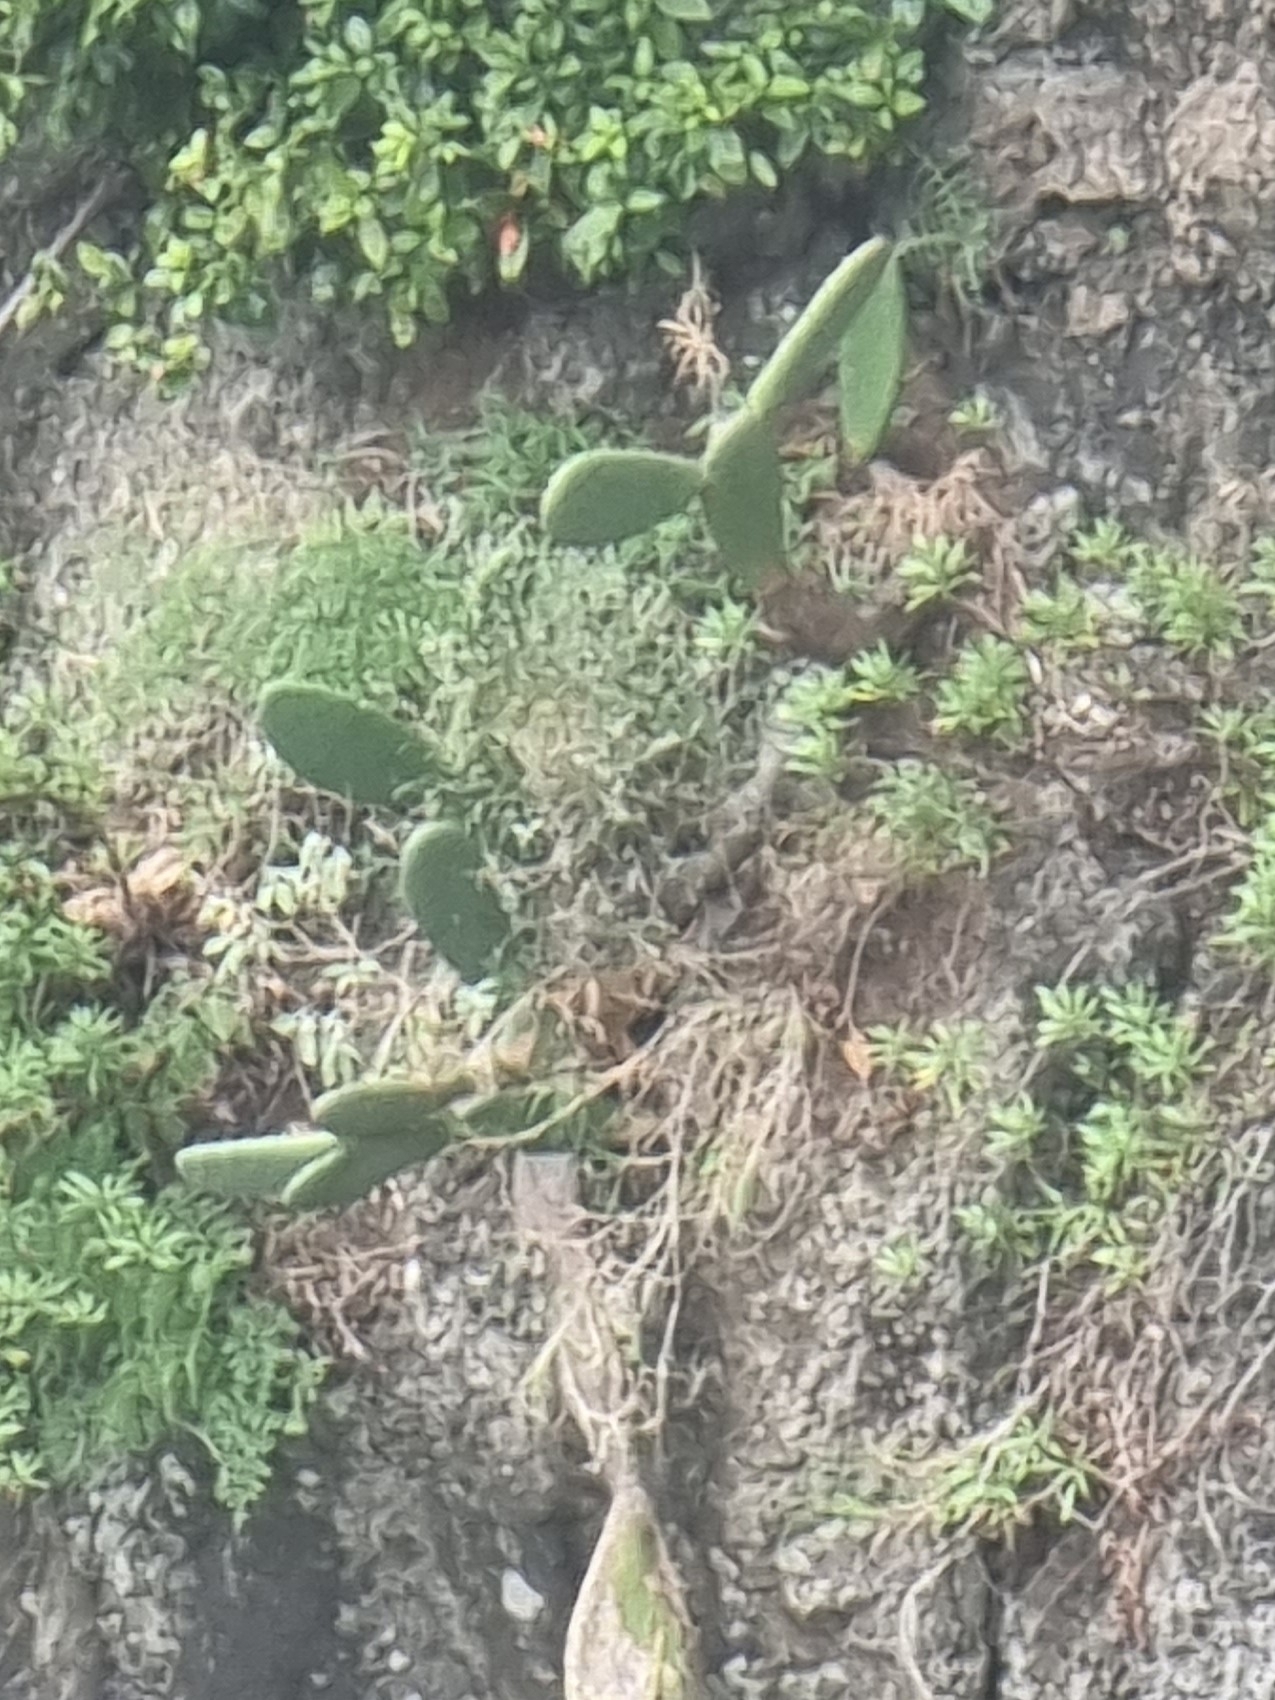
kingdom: Plantae
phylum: Tracheophyta
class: Magnoliopsida
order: Caryophyllales
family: Cactaceae
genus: Opuntia
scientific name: Opuntia ficus-indica
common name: Barbary fig
